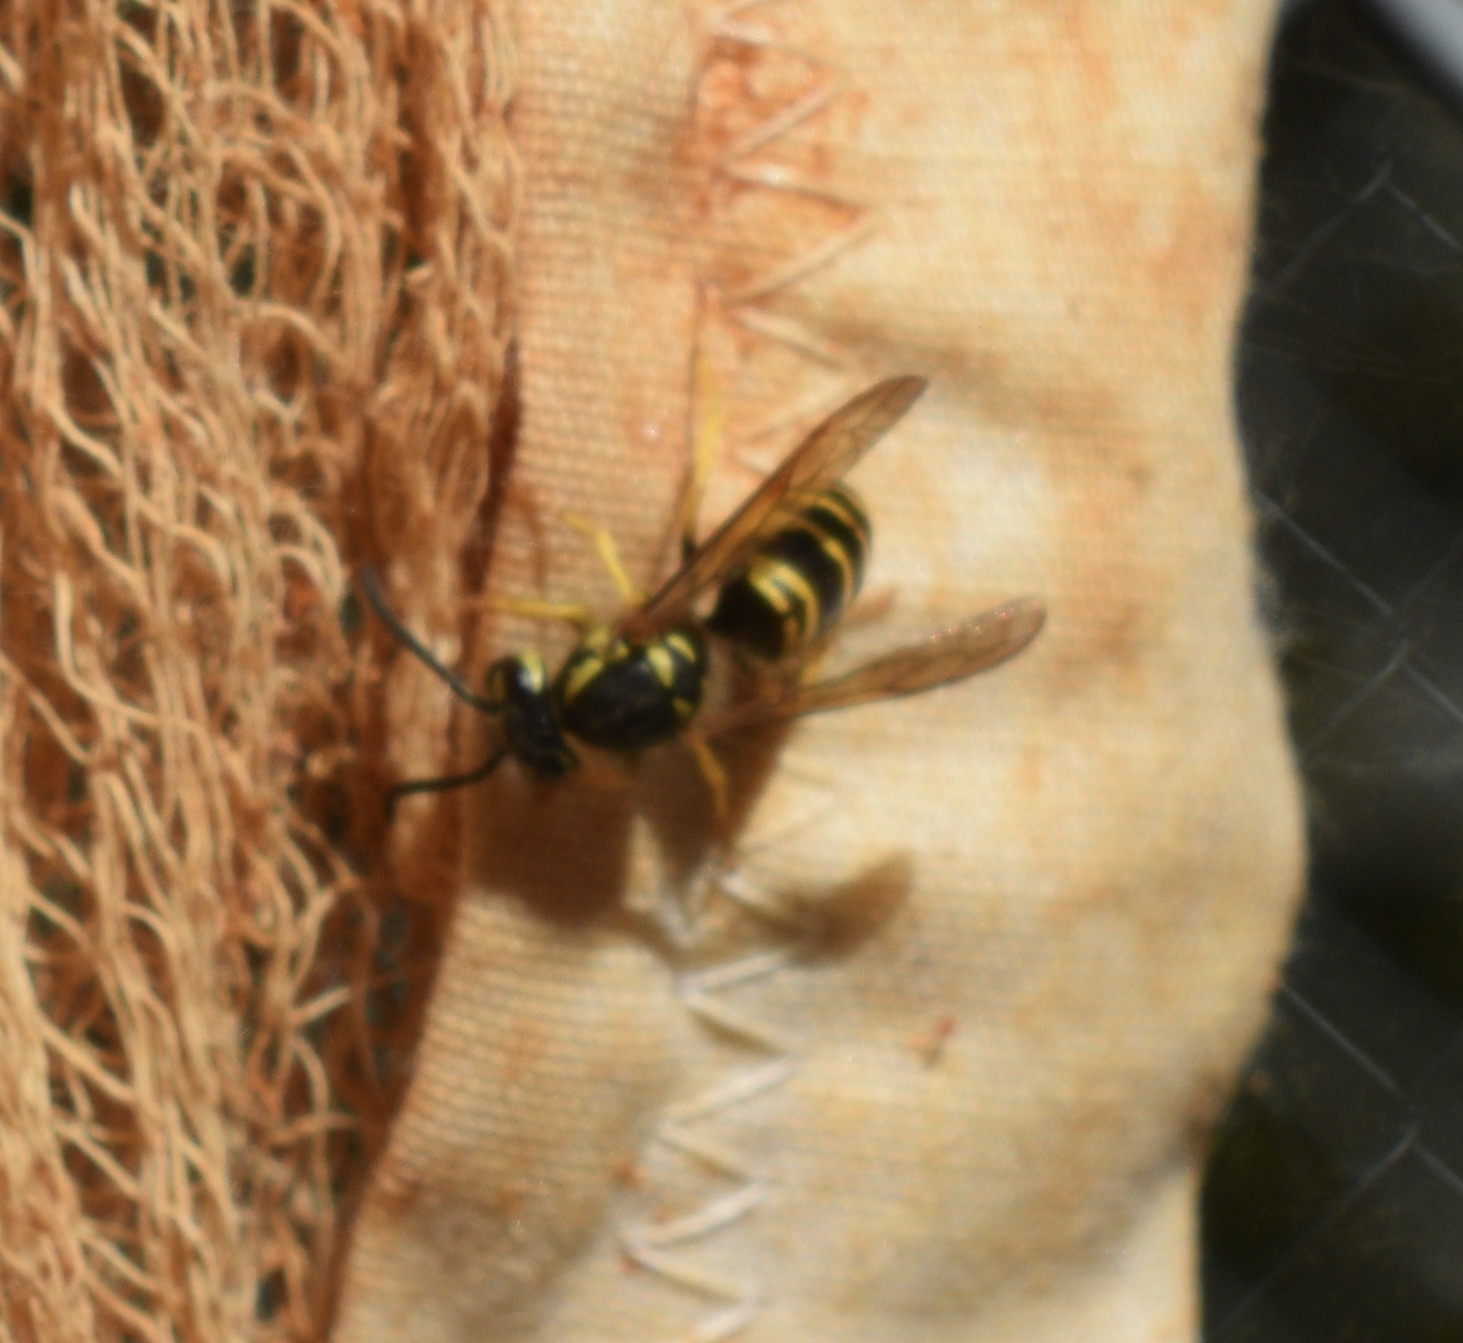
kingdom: Animalia
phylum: Arthropoda
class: Insecta
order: Hymenoptera
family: Vespidae
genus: Vespula
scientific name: Vespula maculifrons
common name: Eastern yellowjacket
